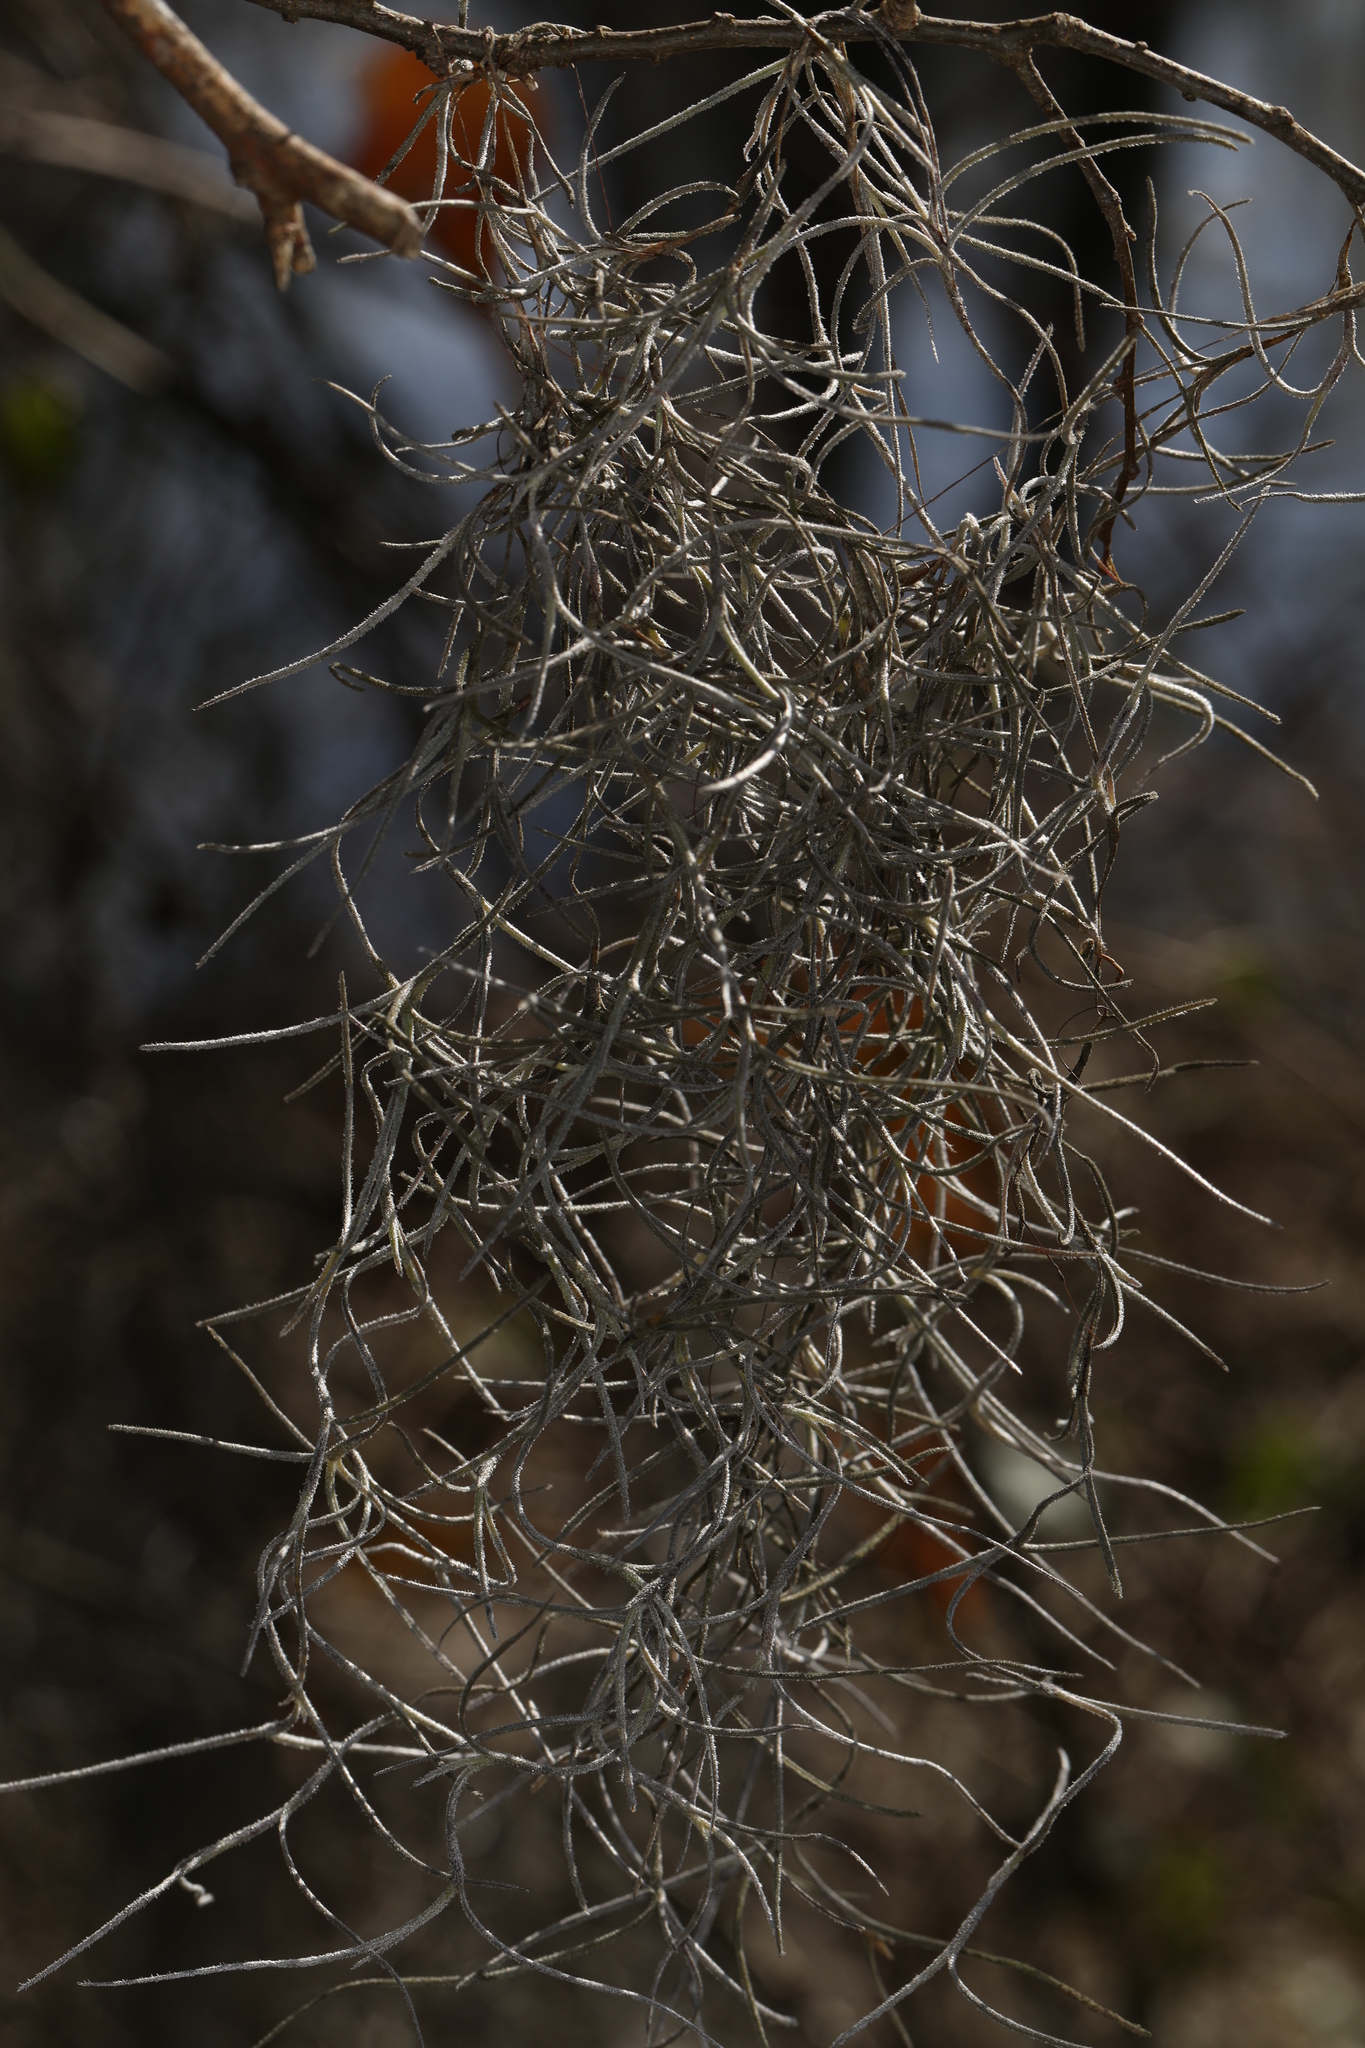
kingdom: Plantae
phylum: Tracheophyta
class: Liliopsida
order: Poales
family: Bromeliaceae
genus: Tillandsia
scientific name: Tillandsia usneoides
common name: Spanish moss
